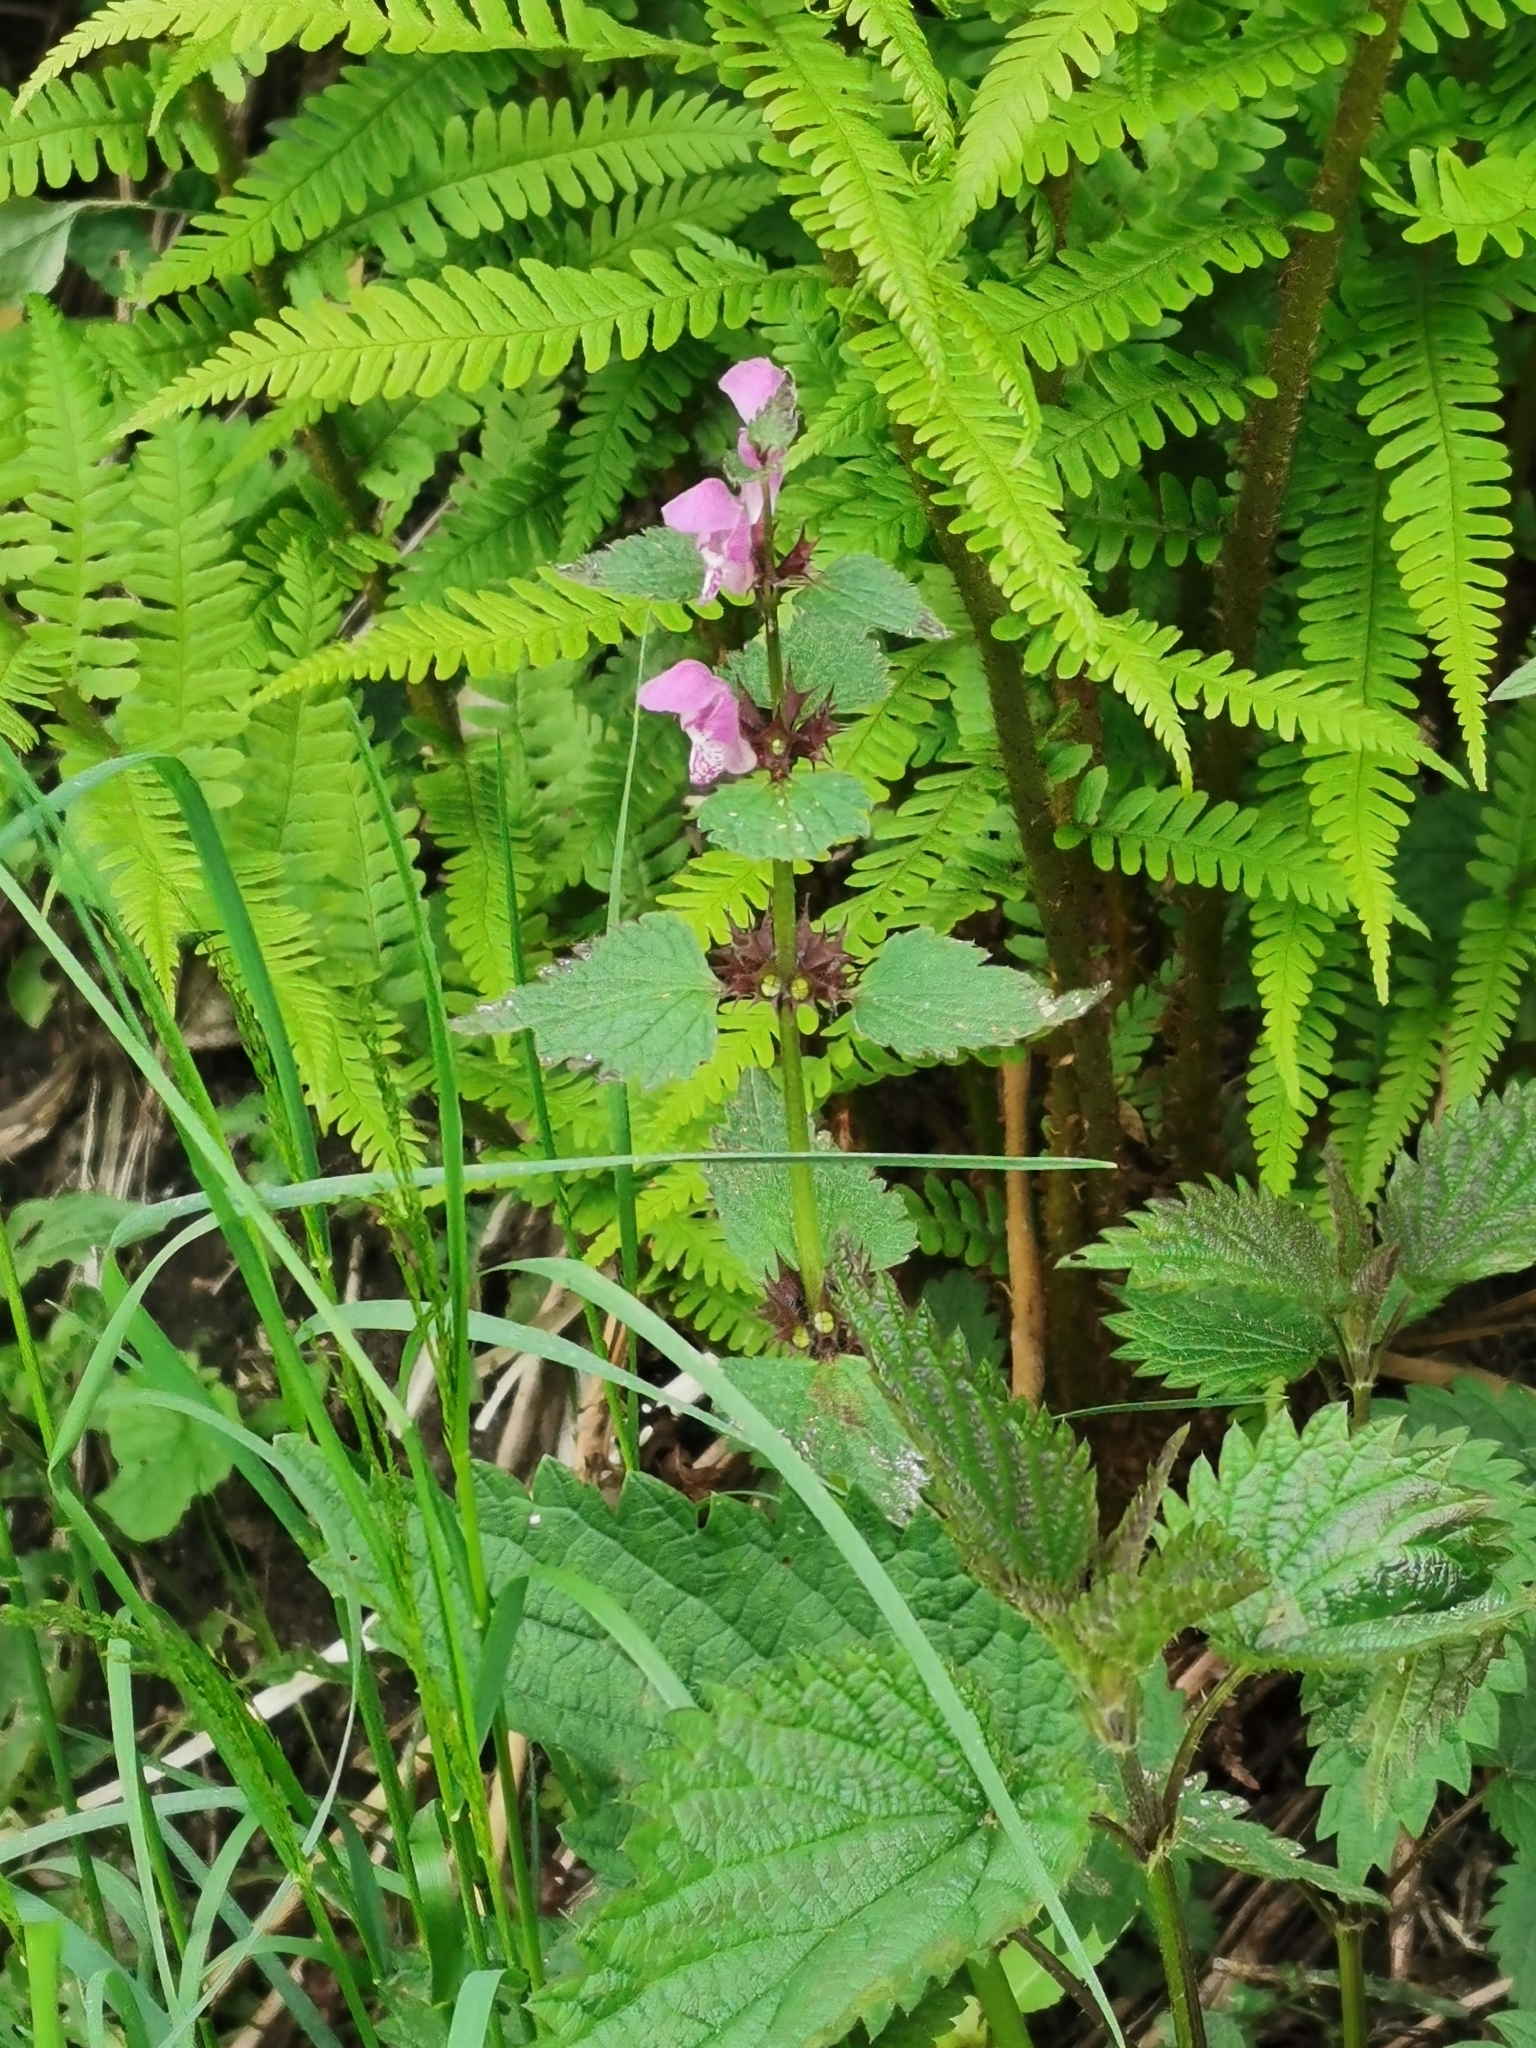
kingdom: Plantae
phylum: Tracheophyta
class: Magnoliopsida
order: Lamiales
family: Lamiaceae
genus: Lamium
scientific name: Lamium maculatum
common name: Spotted dead-nettle
